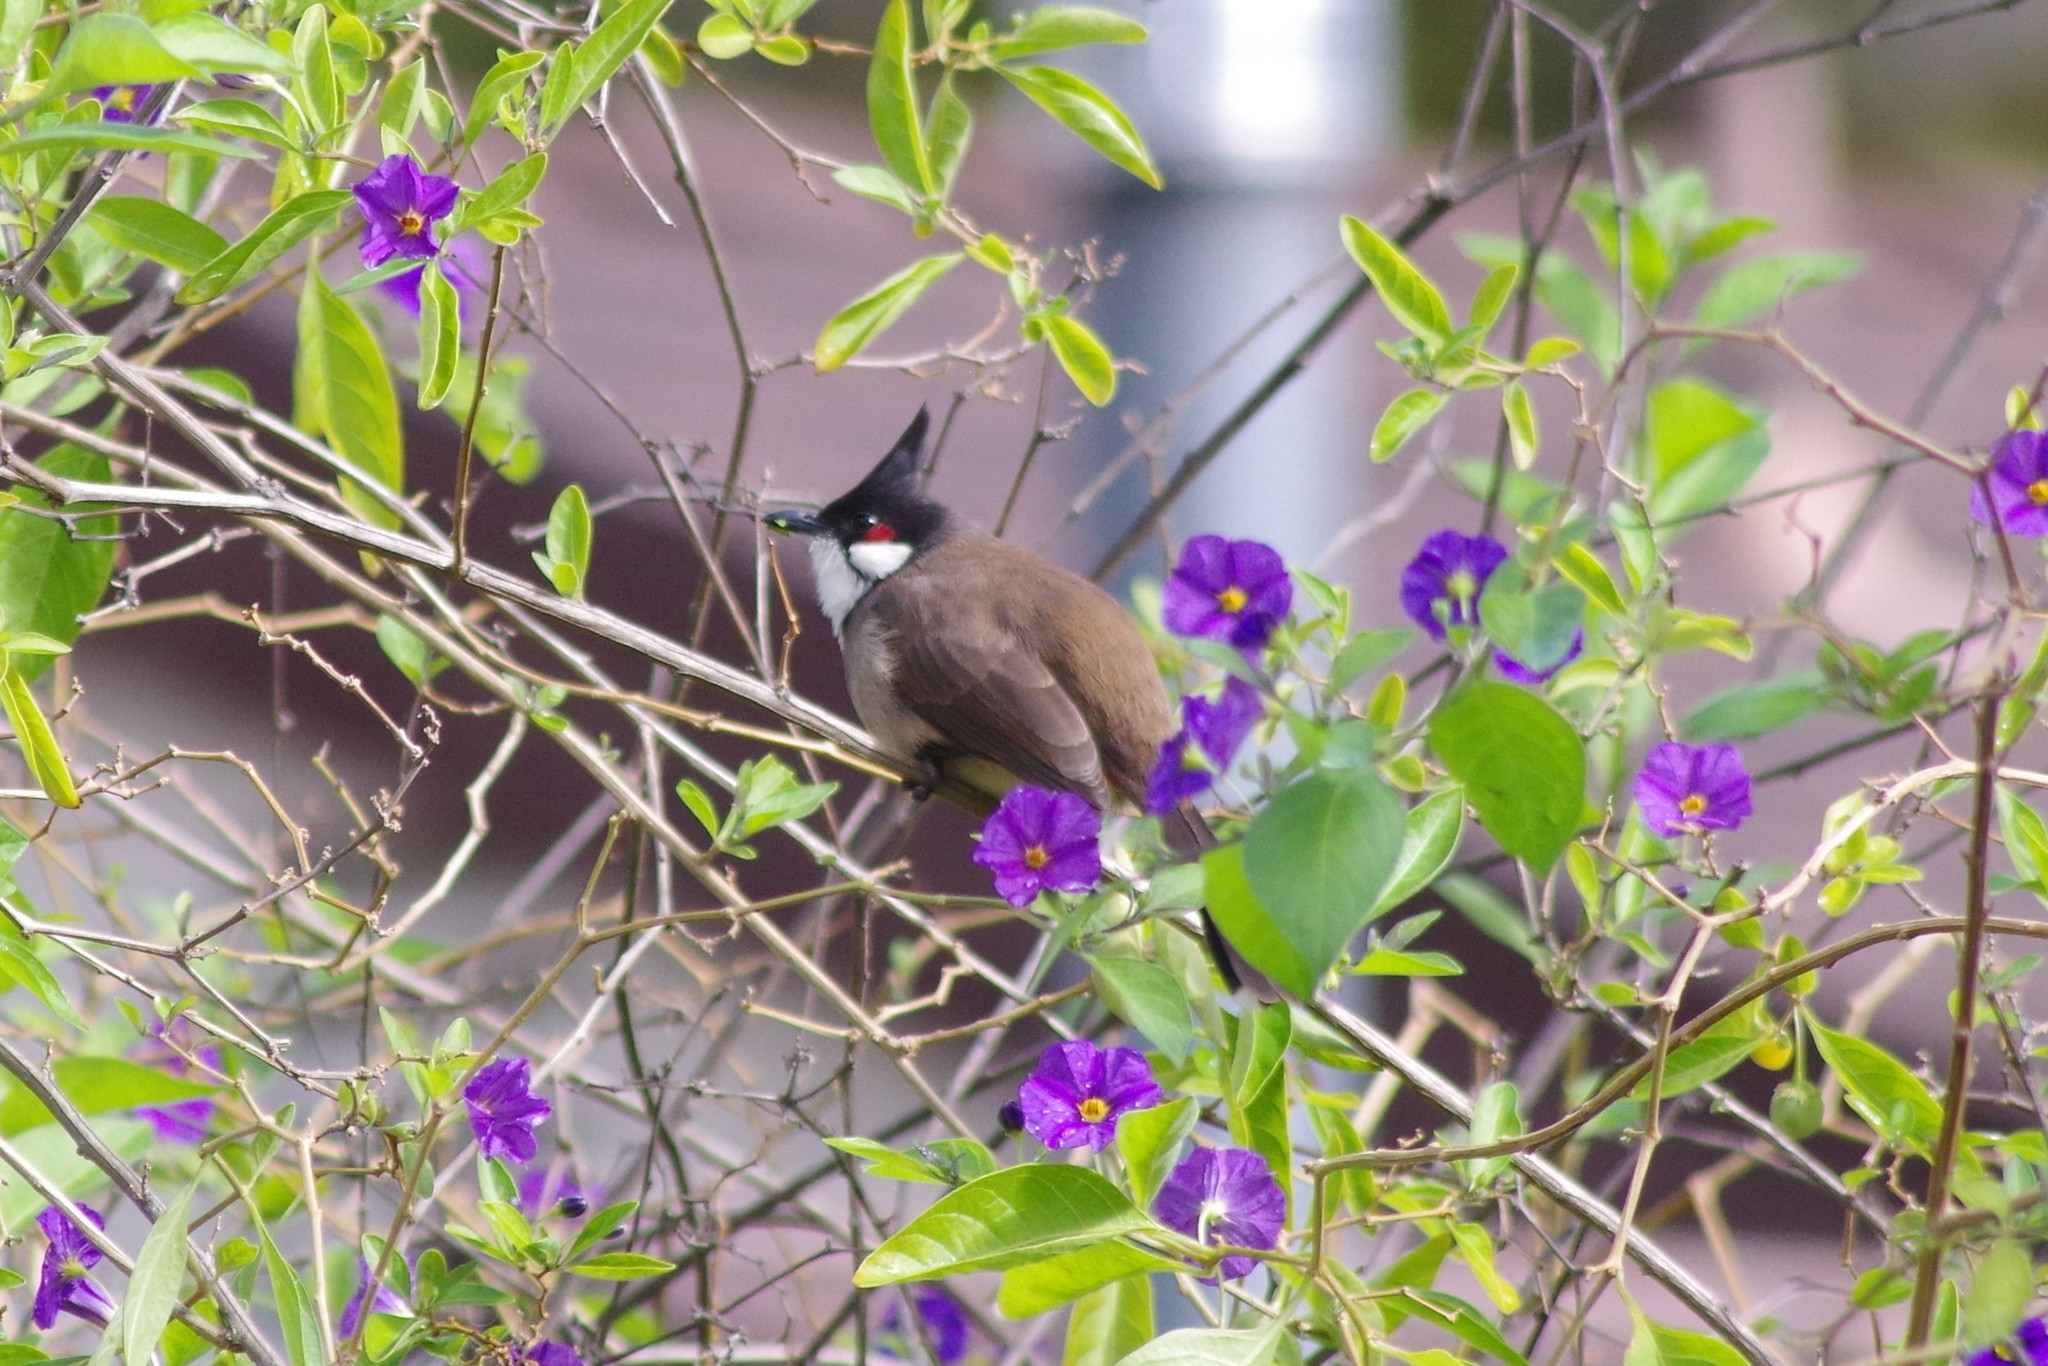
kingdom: Animalia
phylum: Chordata
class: Aves
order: Passeriformes
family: Pycnonotidae
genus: Pycnonotus
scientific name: Pycnonotus jocosus
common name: Red-whiskered bulbul
